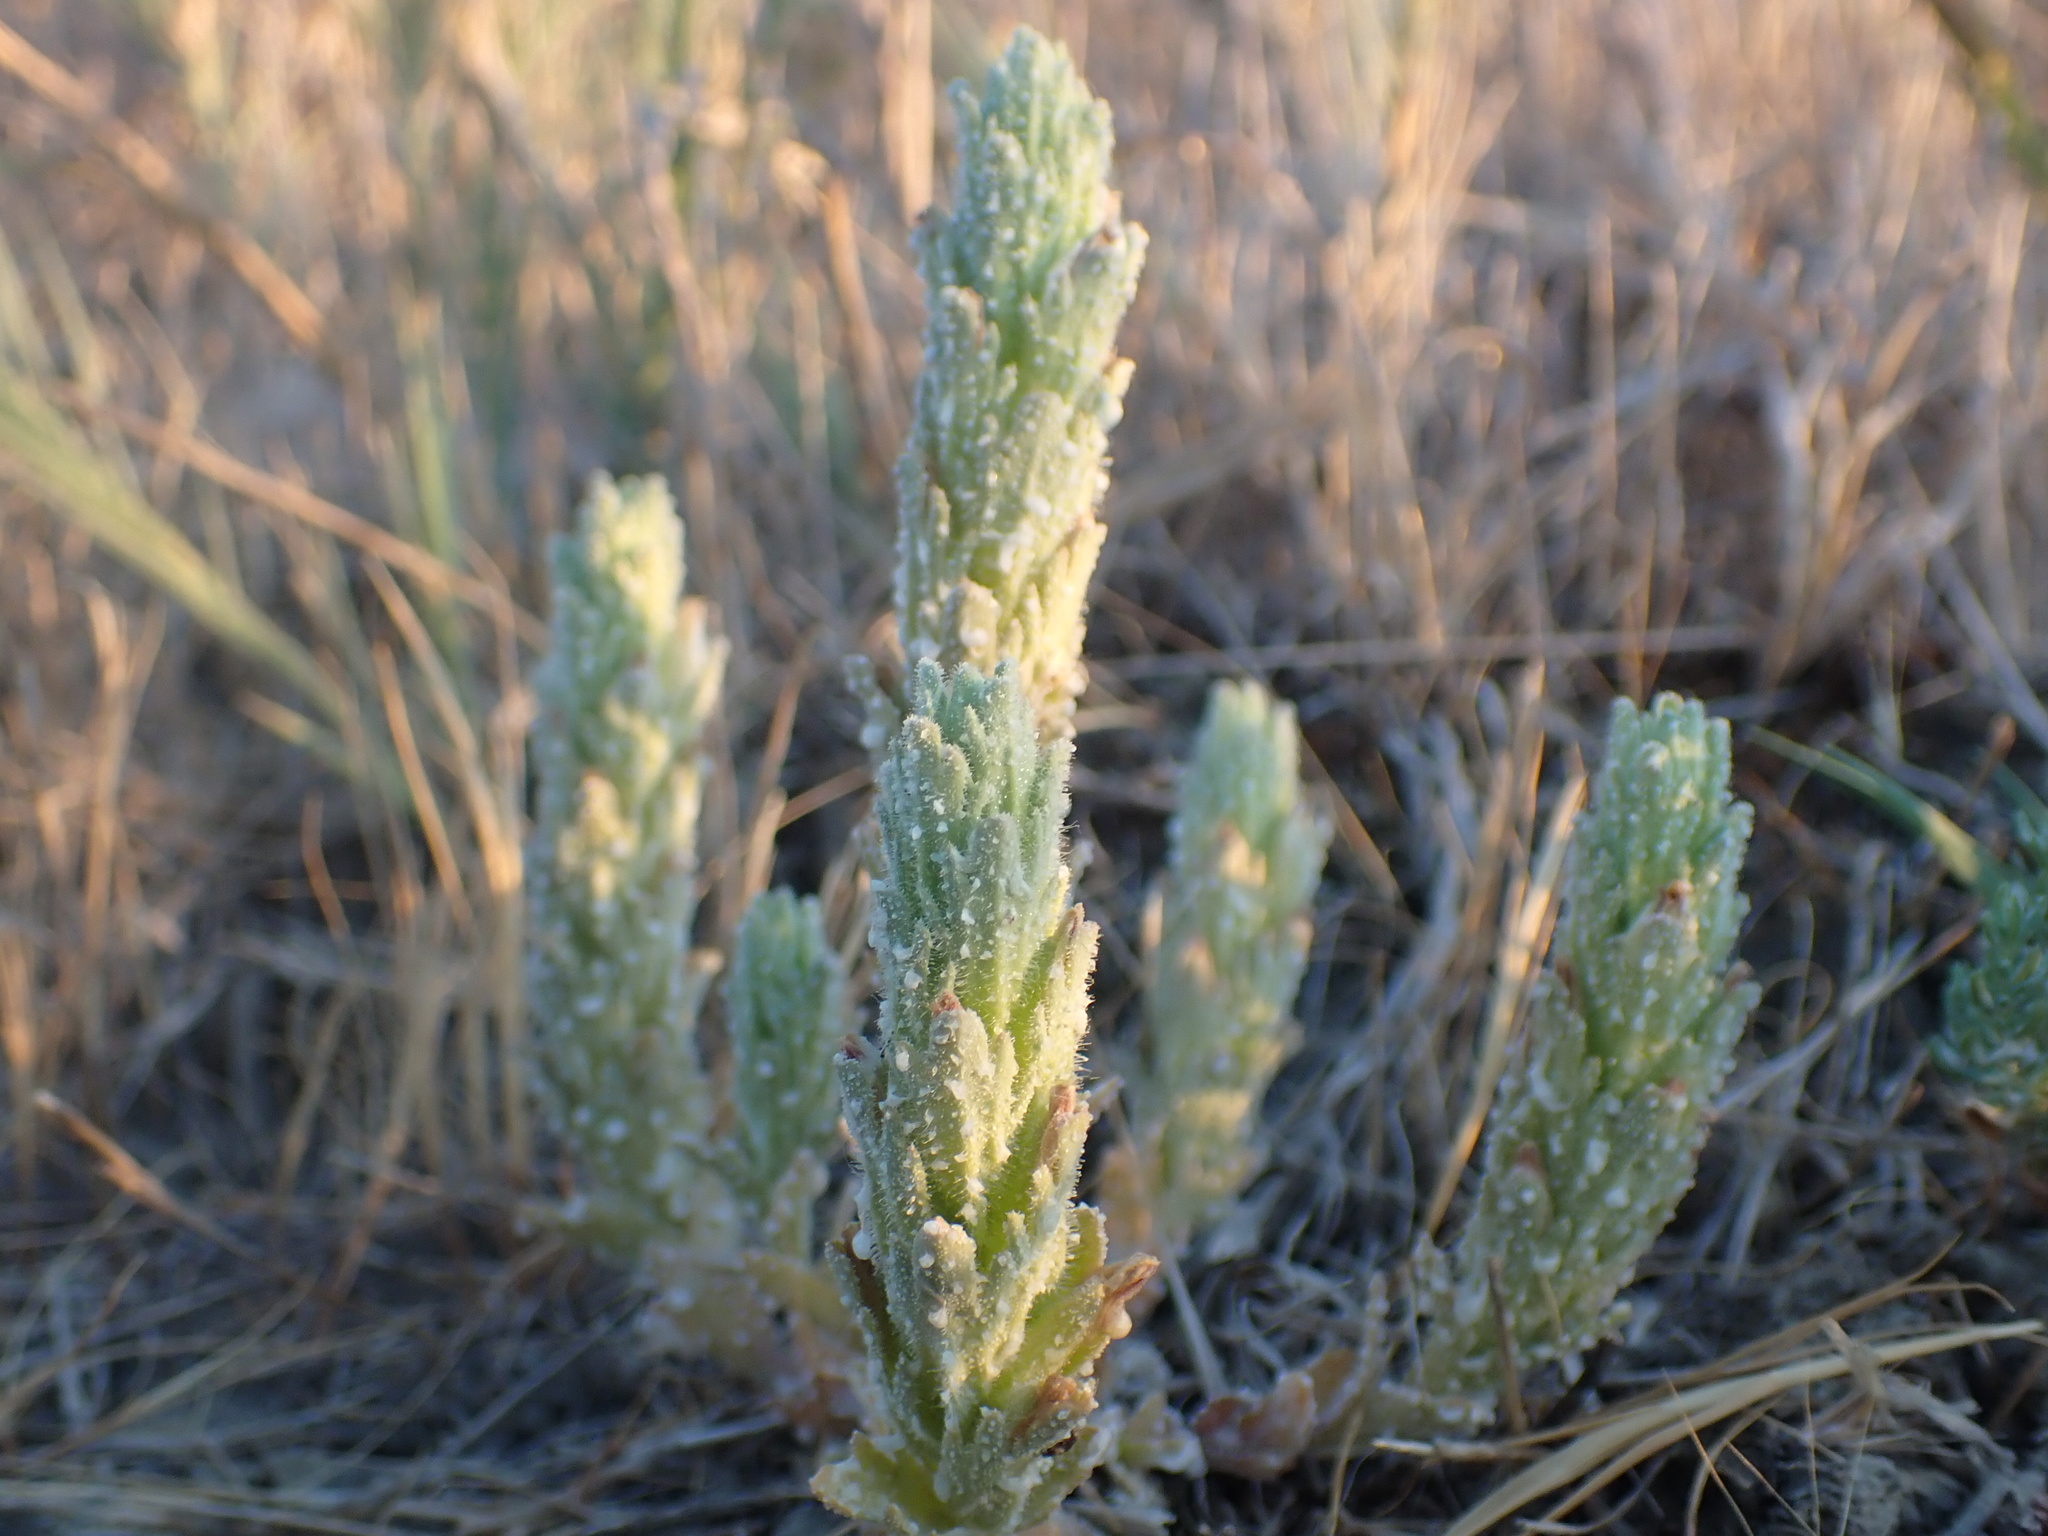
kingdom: Plantae
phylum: Tracheophyta
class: Magnoliopsida
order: Lamiales
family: Orobanchaceae
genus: Chloropyron
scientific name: Chloropyron palmatum
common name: Palmate salty bird's-beak
